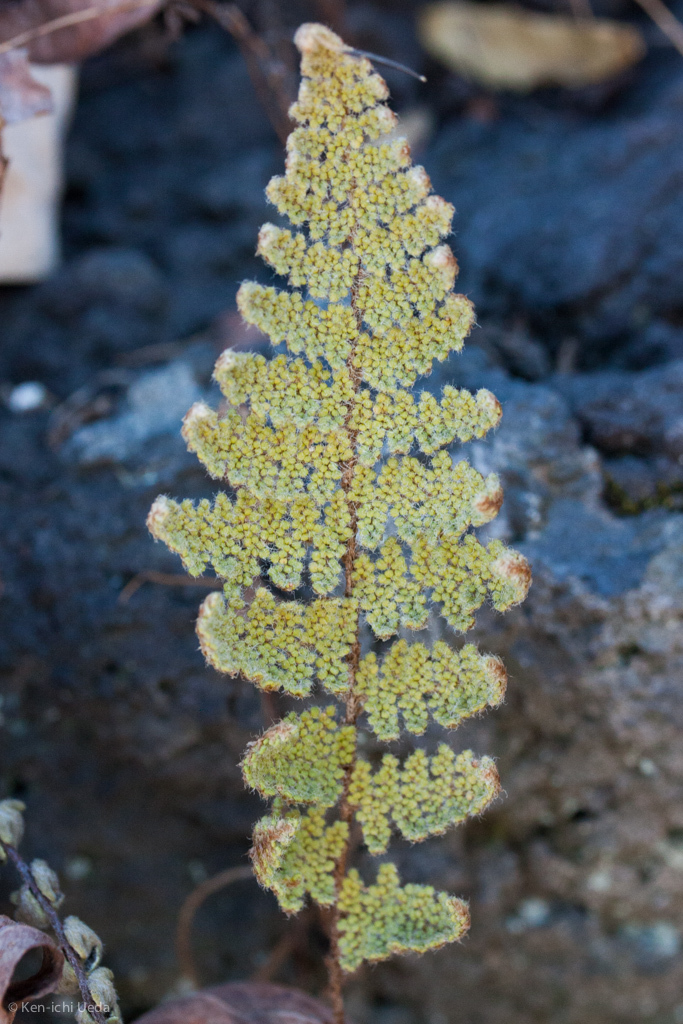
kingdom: Plantae
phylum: Tracheophyta
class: Polypodiopsida
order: Polypodiales
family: Pteridaceae
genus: Myriopteris
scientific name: Myriopteris myriophylla
